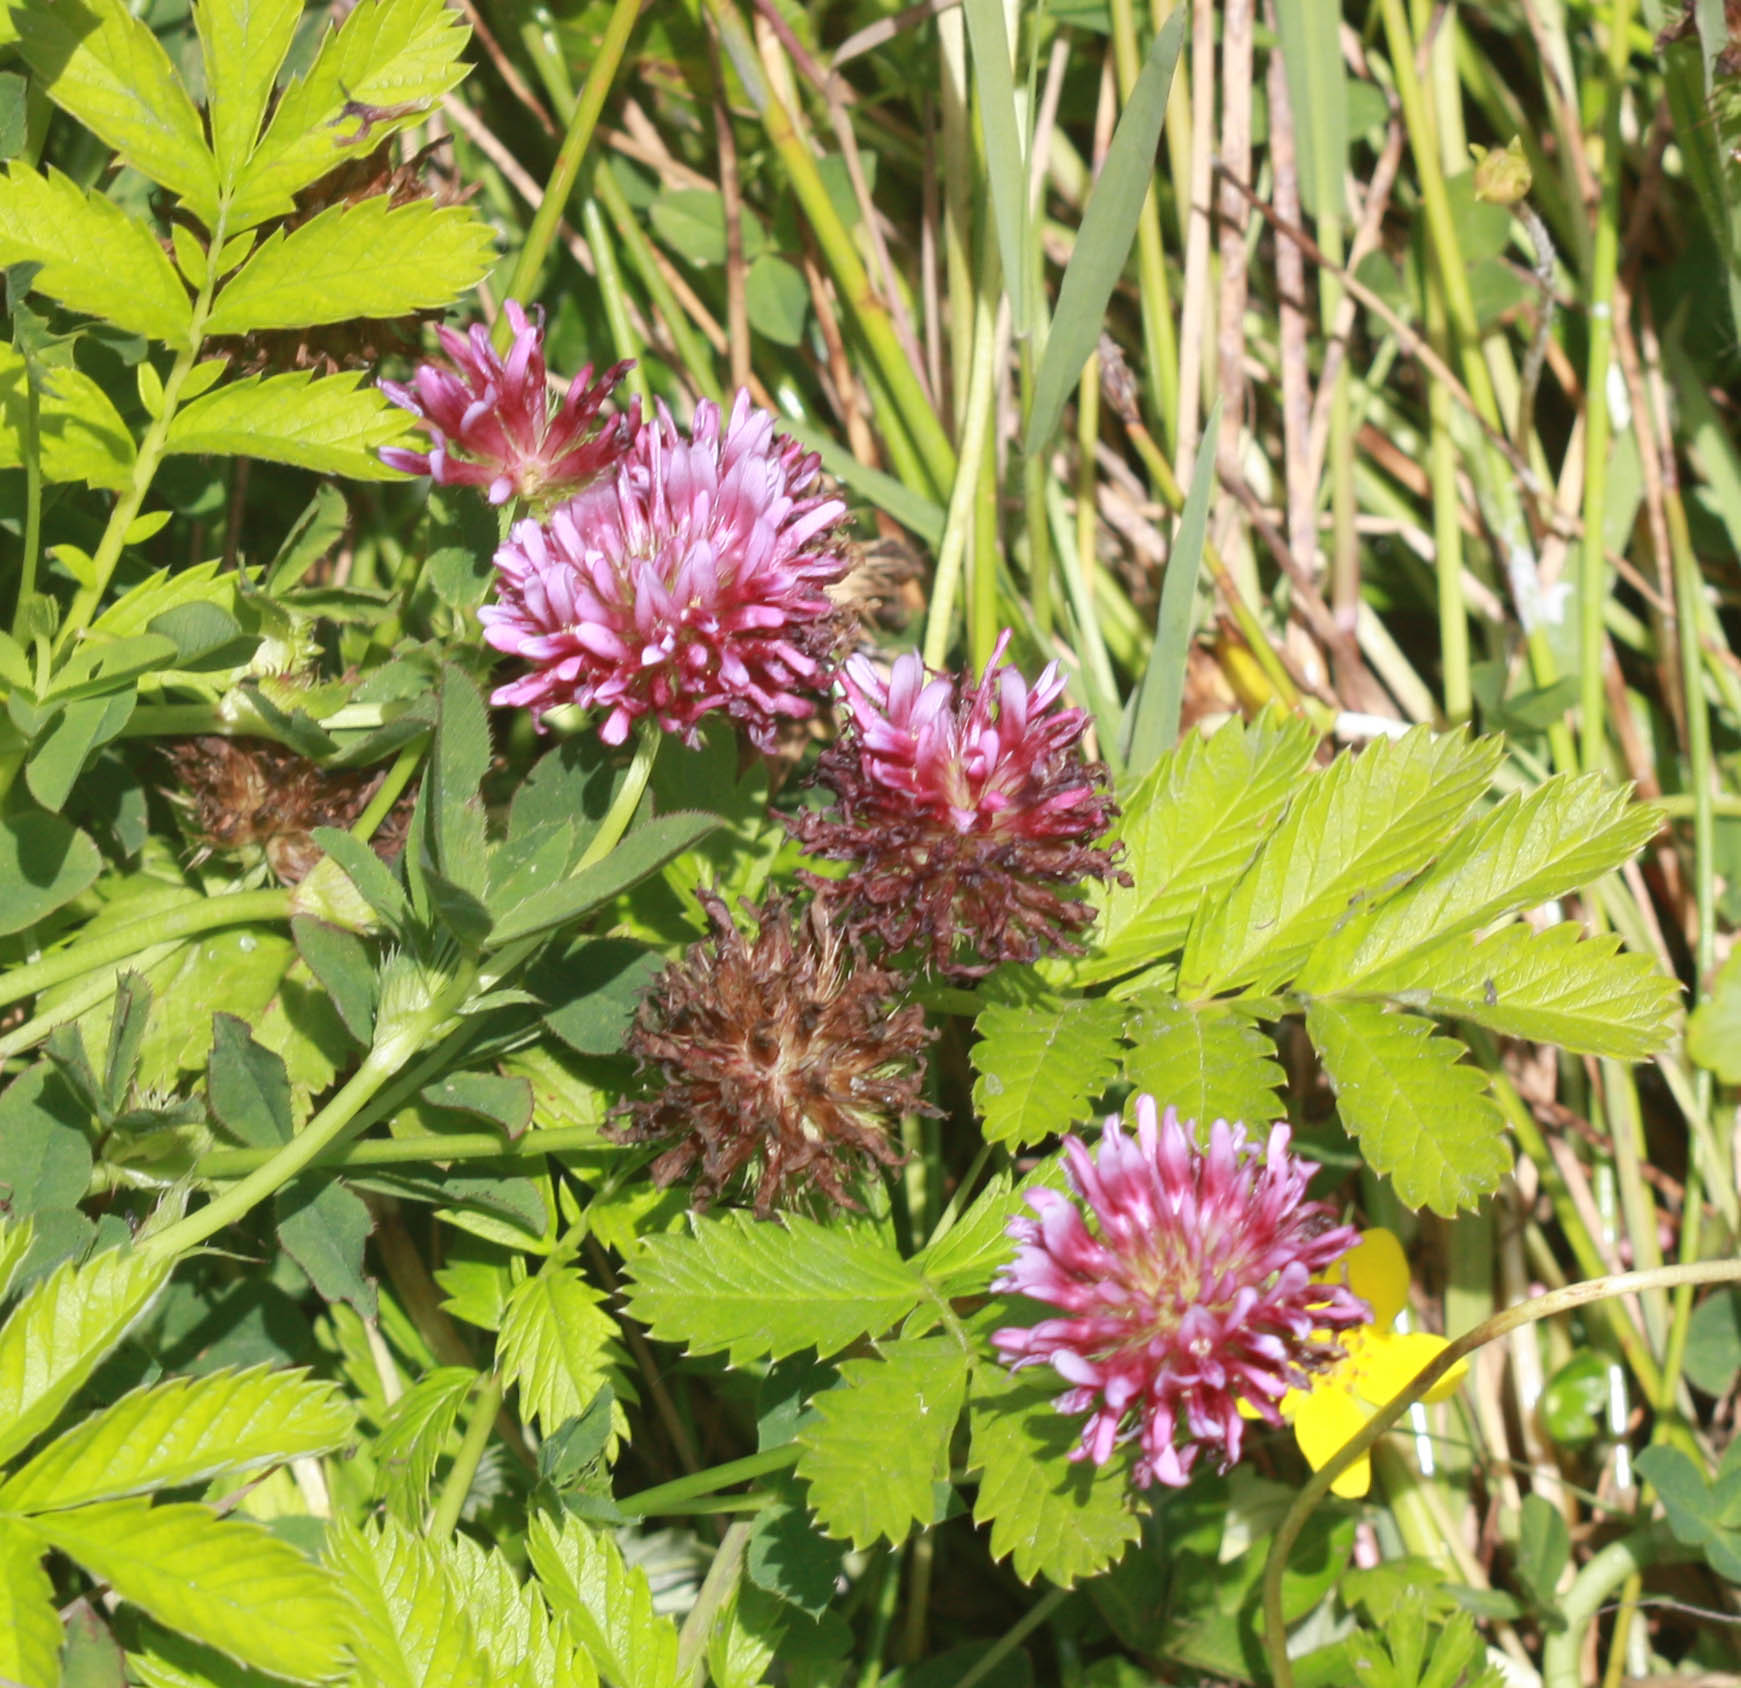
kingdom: Plantae
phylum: Tracheophyta
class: Magnoliopsida
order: Fabales
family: Fabaceae
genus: Trifolium
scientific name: Trifolium wormskioldii
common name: Springbank clover
